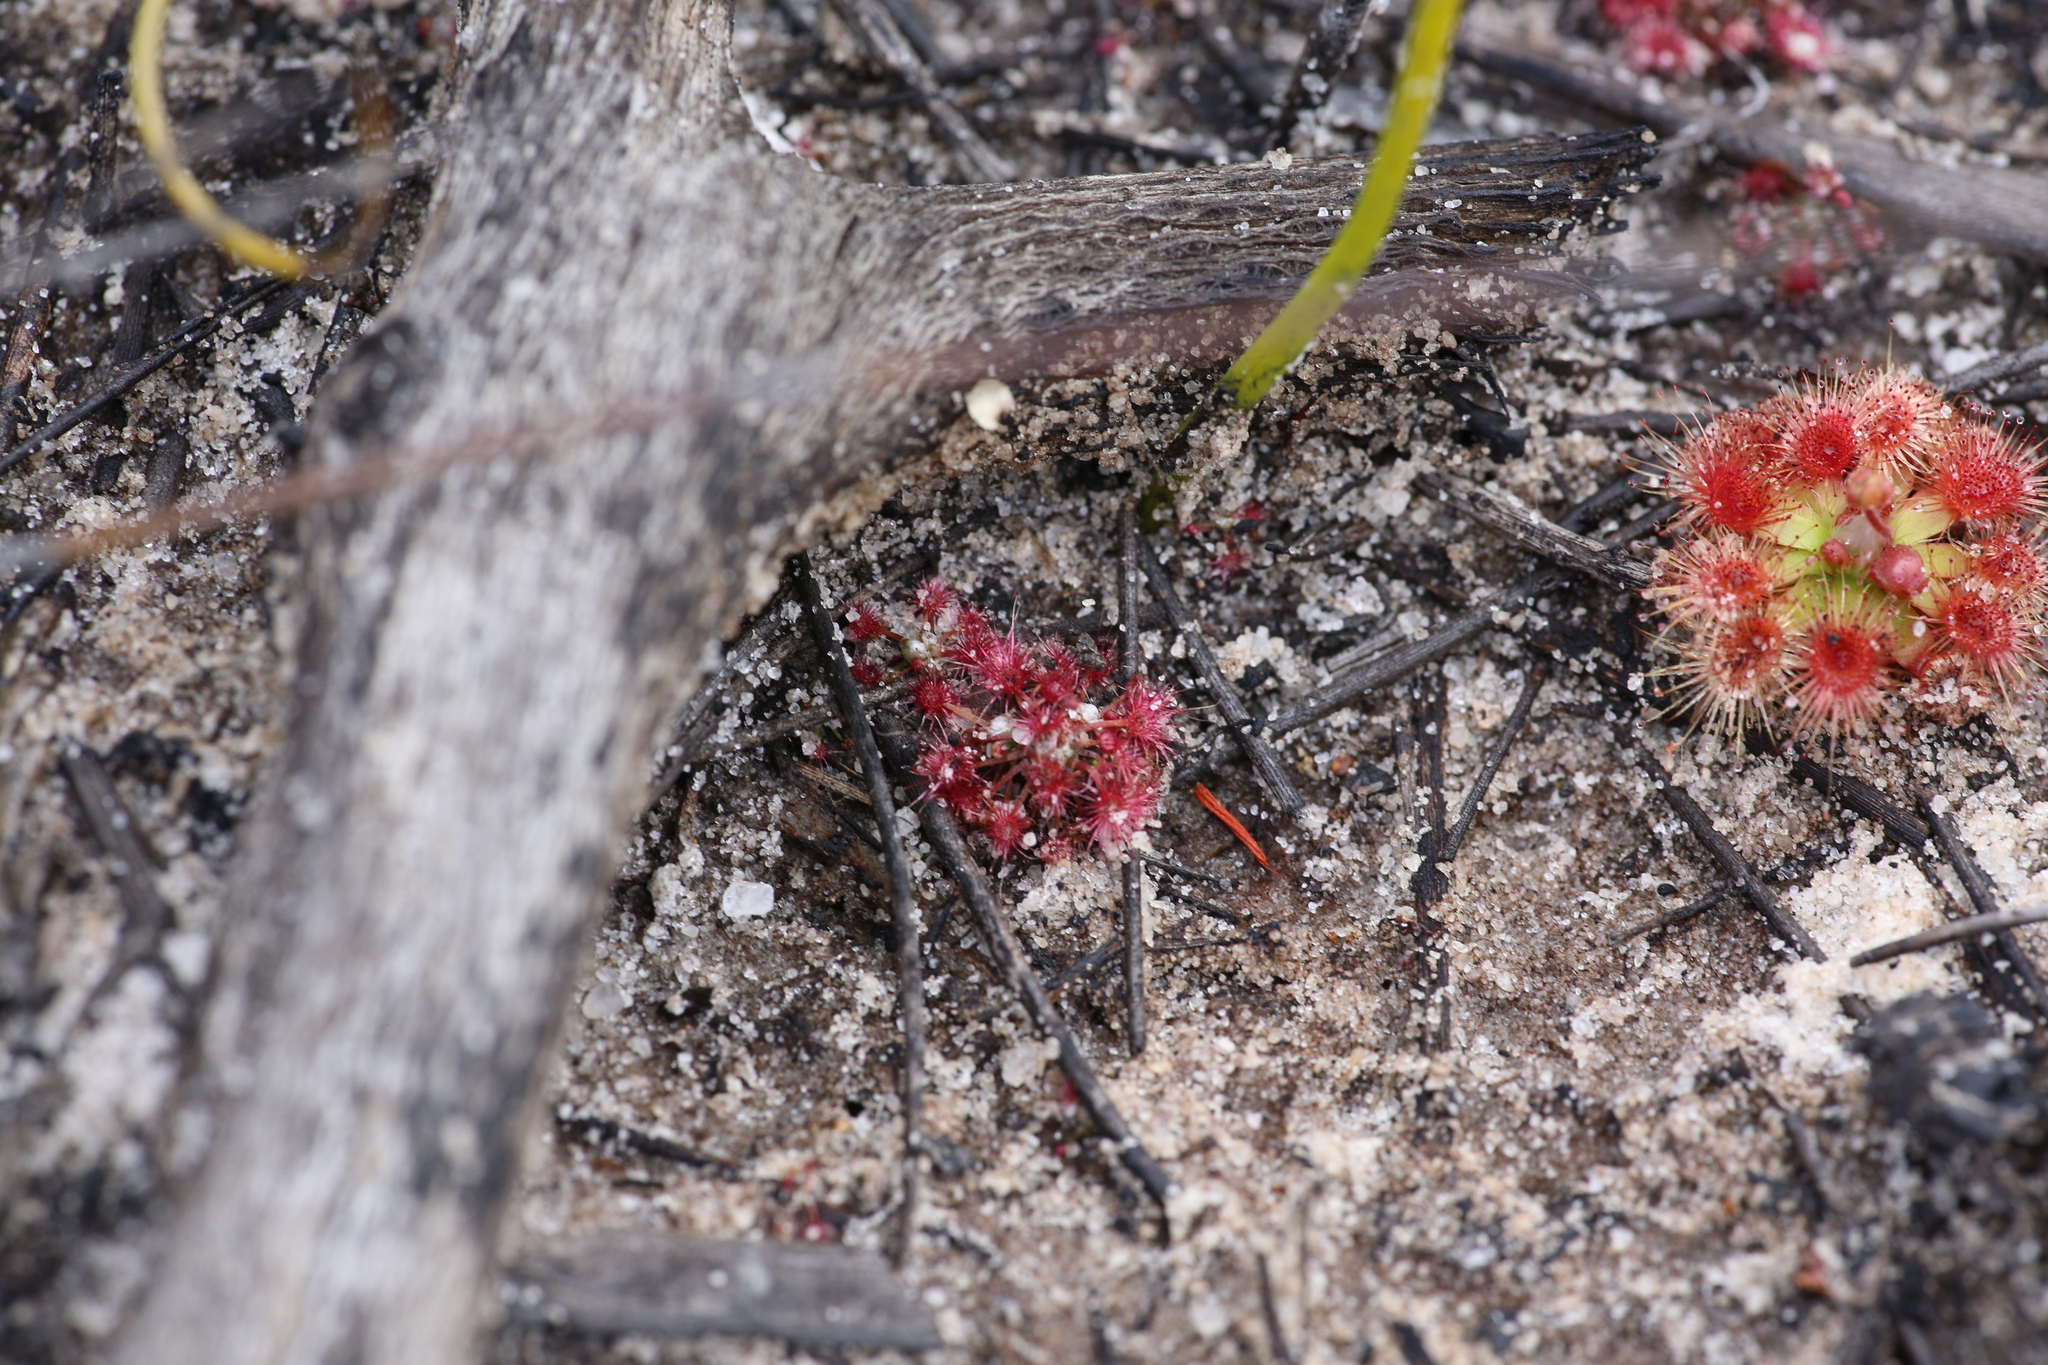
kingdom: Plantae
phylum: Tracheophyta
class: Magnoliopsida
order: Caryophyllales
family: Droseraceae
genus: Drosera
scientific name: Drosera occidentalis
